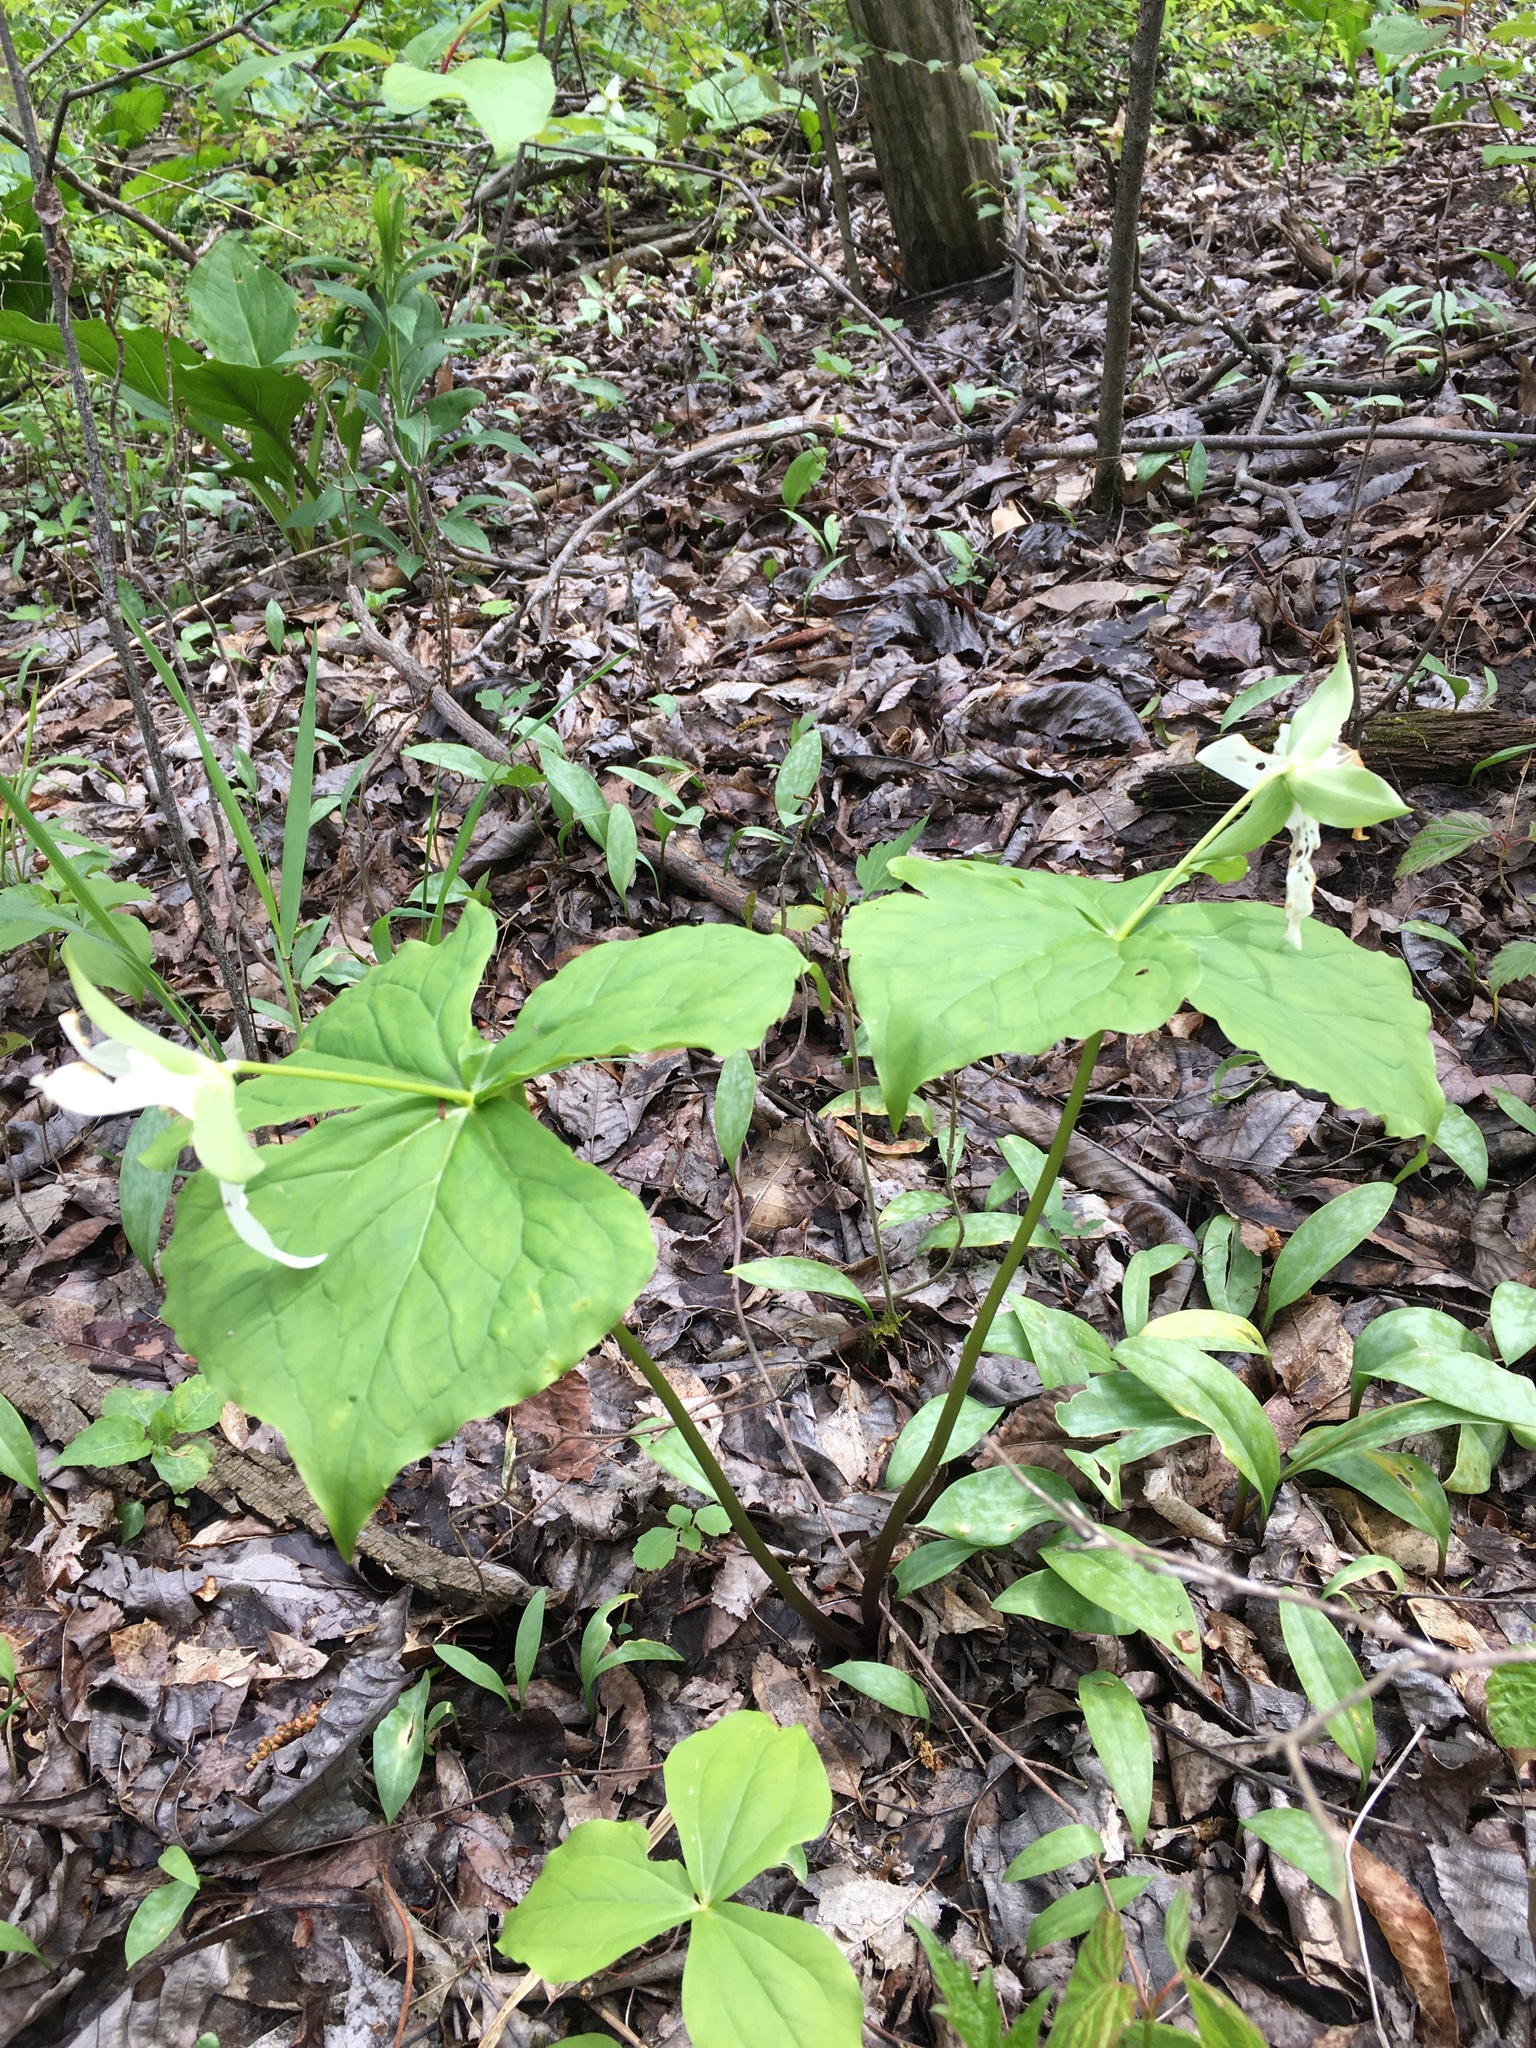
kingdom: Plantae
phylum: Tracheophyta
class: Liliopsida
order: Liliales
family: Melanthiaceae
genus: Trillium
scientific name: Trillium erectum
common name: Purple trillium
